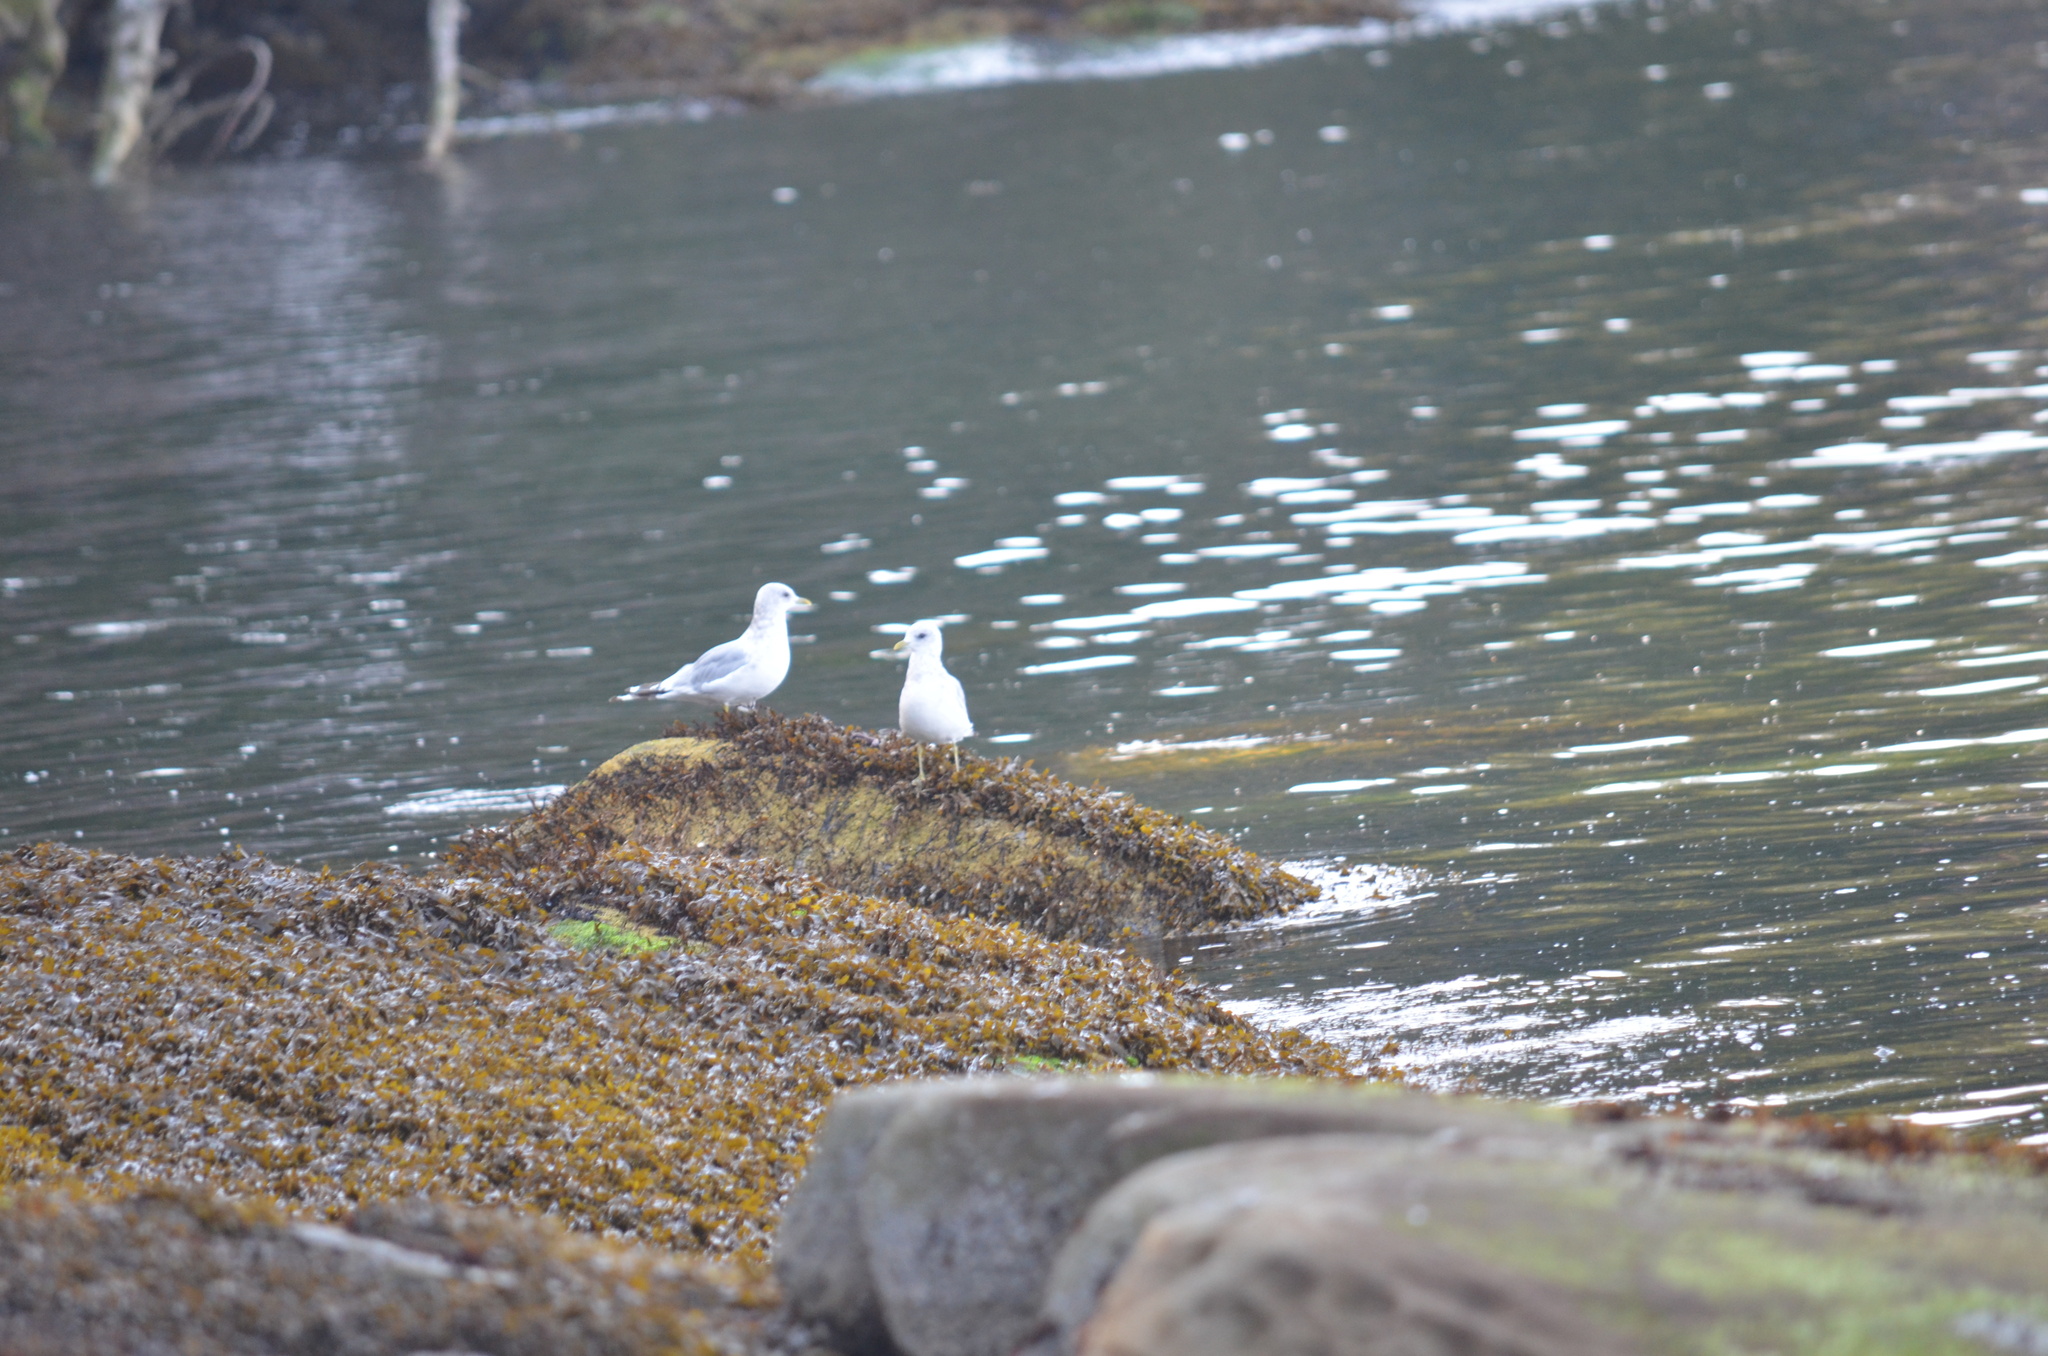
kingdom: Animalia
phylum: Chordata
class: Aves
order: Charadriiformes
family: Laridae
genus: Larus
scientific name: Larus brachyrhynchus
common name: Short-billed gull
